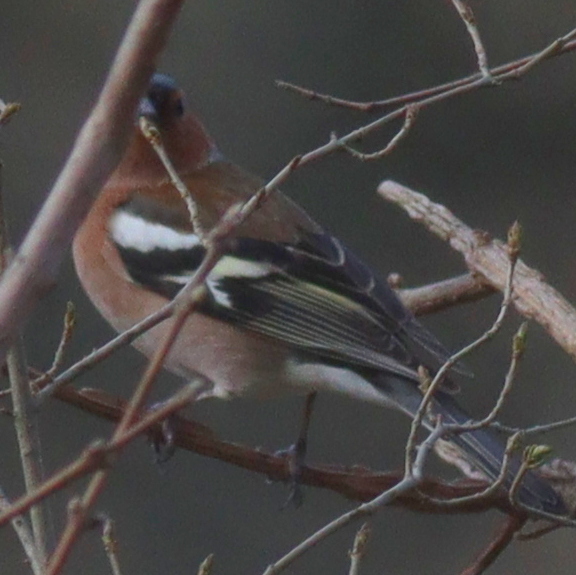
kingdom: Animalia
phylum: Chordata
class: Aves
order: Passeriformes
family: Fringillidae
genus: Fringilla
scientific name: Fringilla coelebs
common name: Common chaffinch
